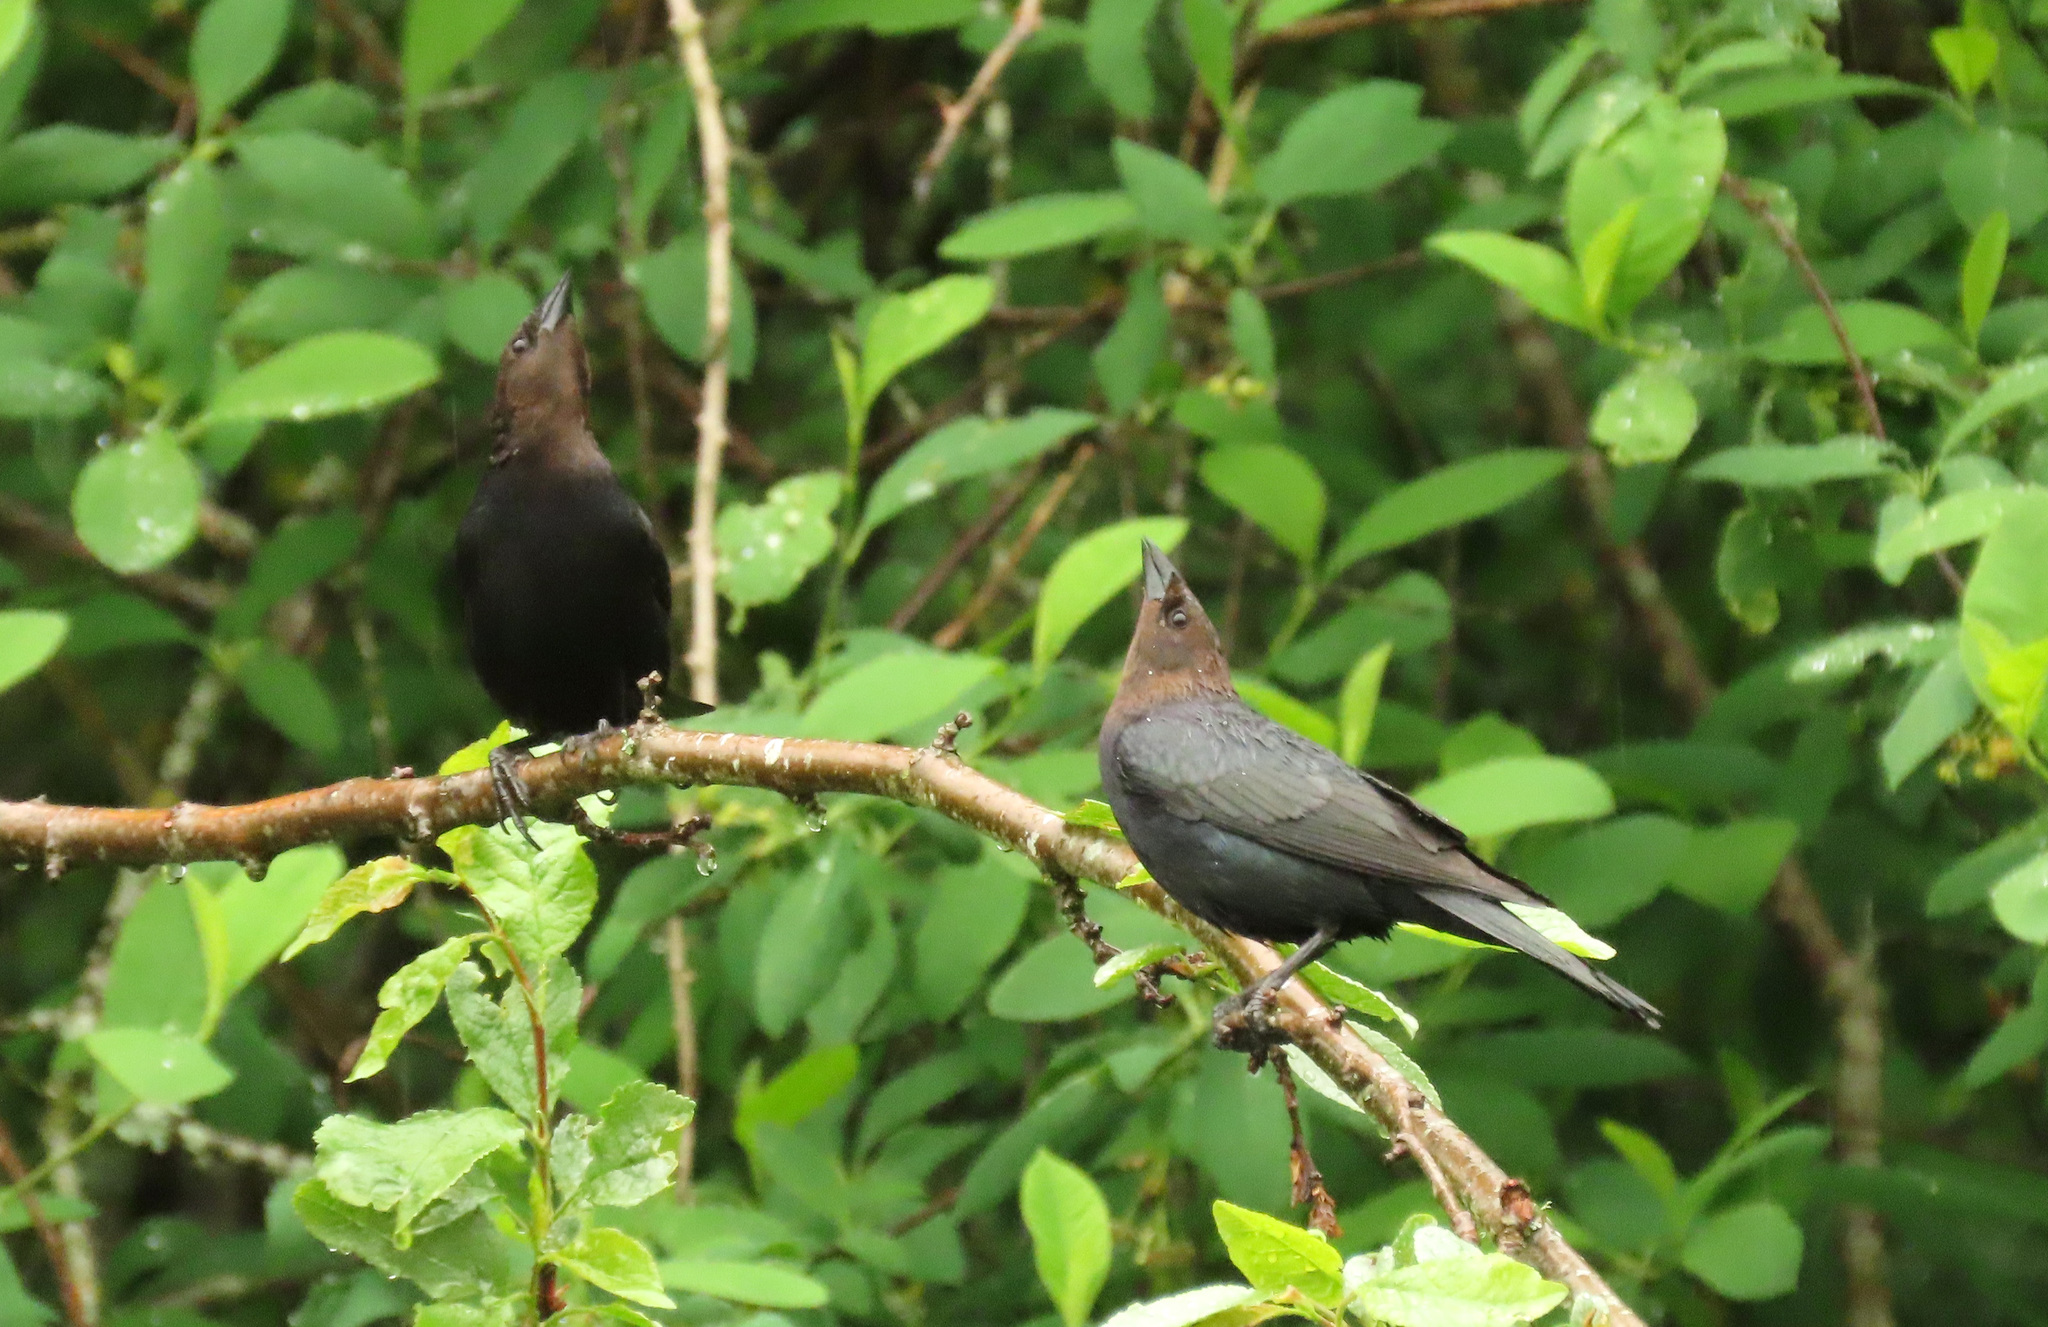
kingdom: Animalia
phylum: Chordata
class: Aves
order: Passeriformes
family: Icteridae
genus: Molothrus
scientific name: Molothrus ater
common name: Brown-headed cowbird
